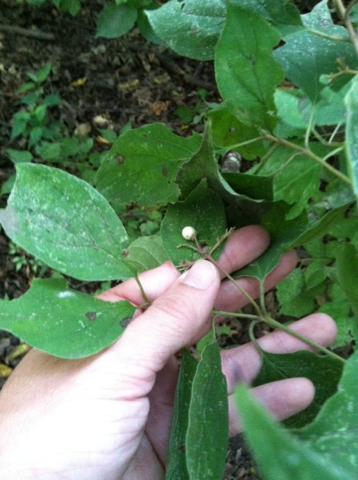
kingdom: Plantae
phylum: Tracheophyta
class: Magnoliopsida
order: Cornales
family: Cornaceae
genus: Cornus
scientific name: Cornus drummondii
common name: Rough-leaf dogwood
